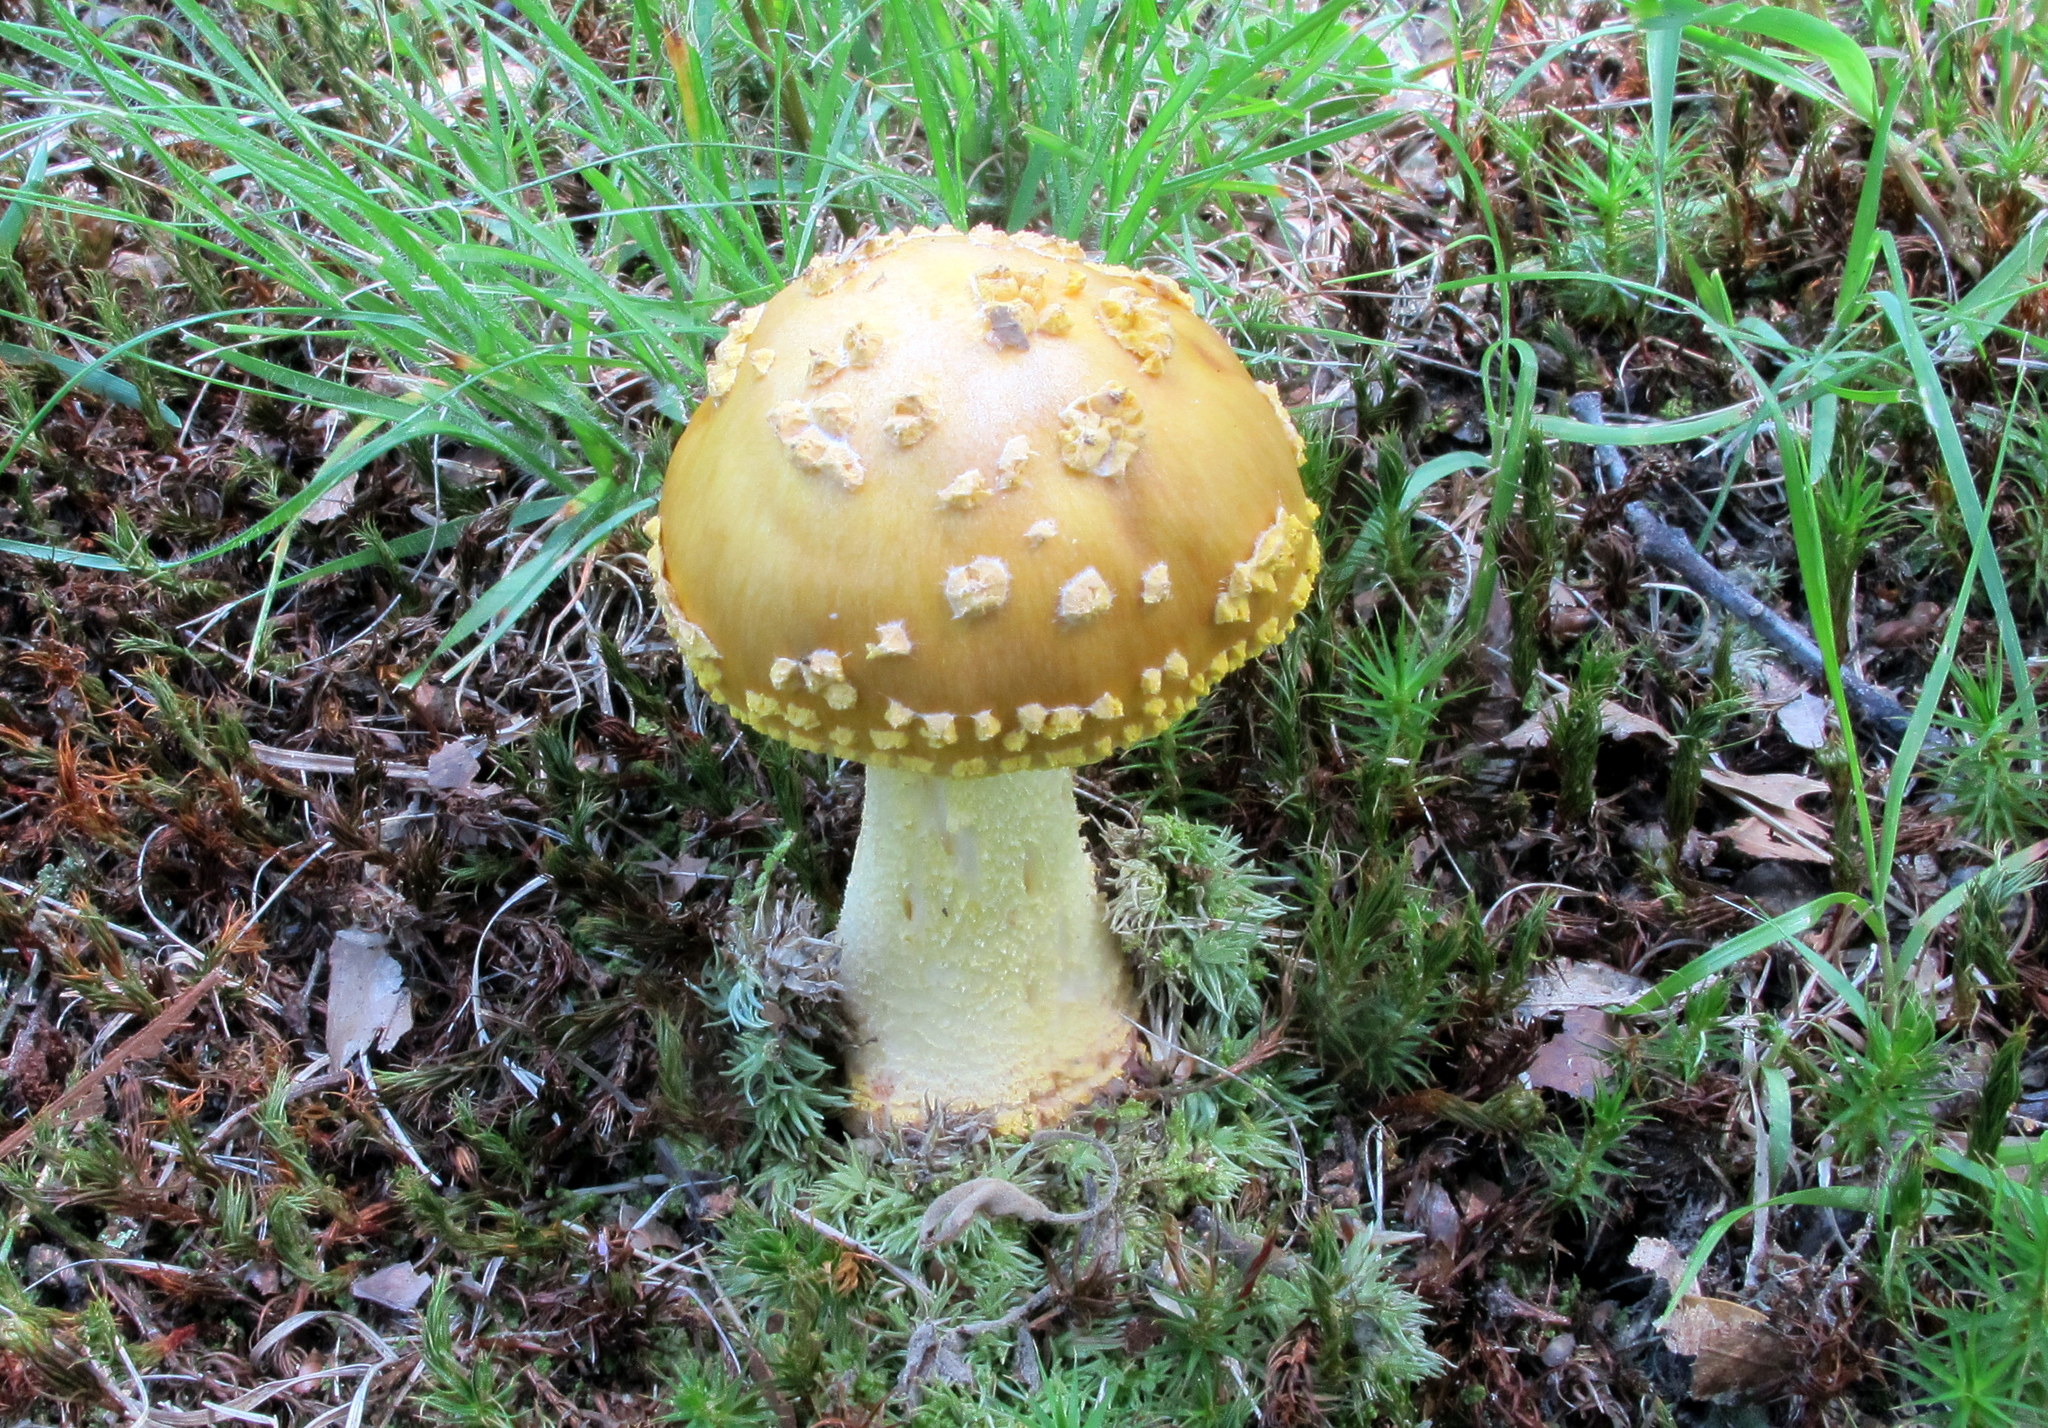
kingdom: Fungi
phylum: Basidiomycota
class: Agaricomycetes
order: Agaricales
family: Amanitaceae
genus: Amanita
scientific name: Amanita flavorubens
